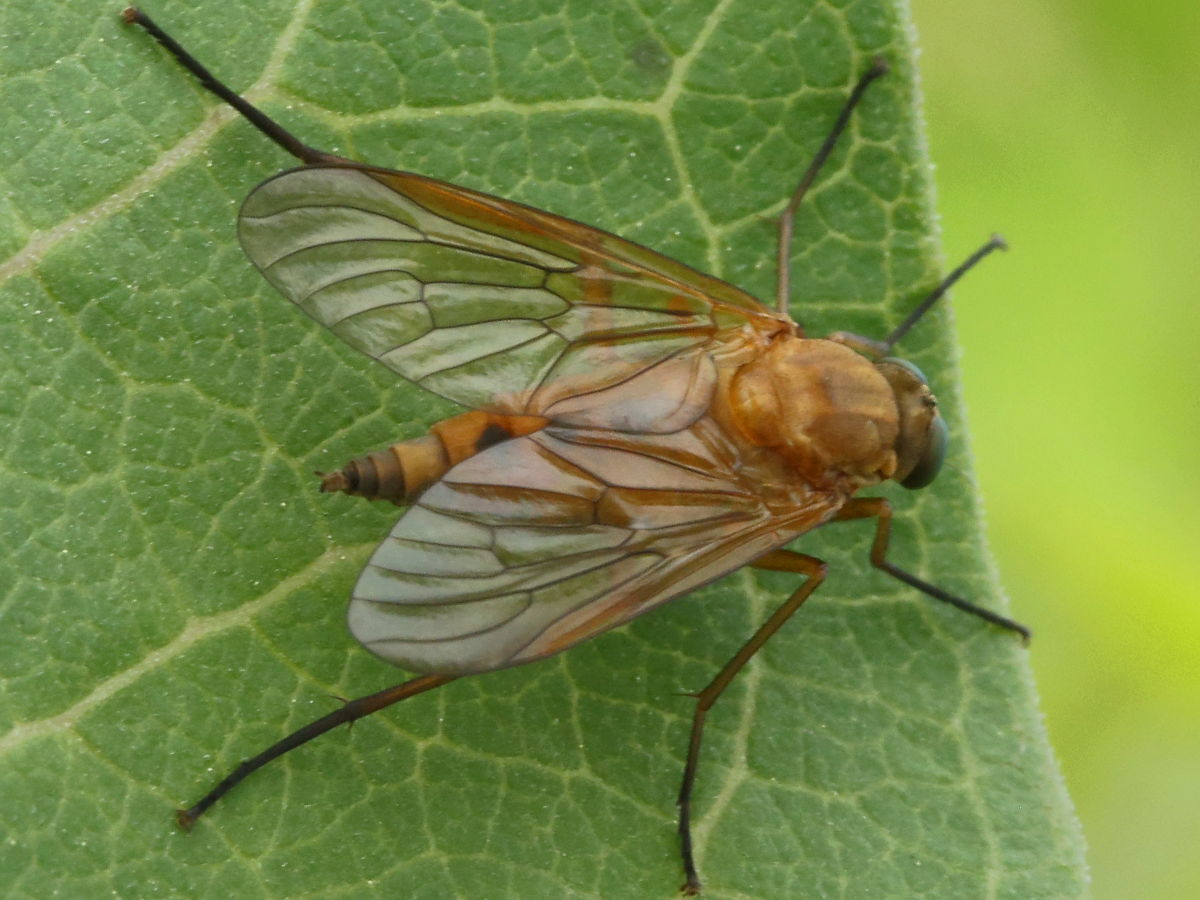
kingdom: Animalia
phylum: Arthropoda
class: Insecta
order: Diptera
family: Rhagionidae
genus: Rhagio
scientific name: Rhagio tringaria
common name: Marsh snipefly
